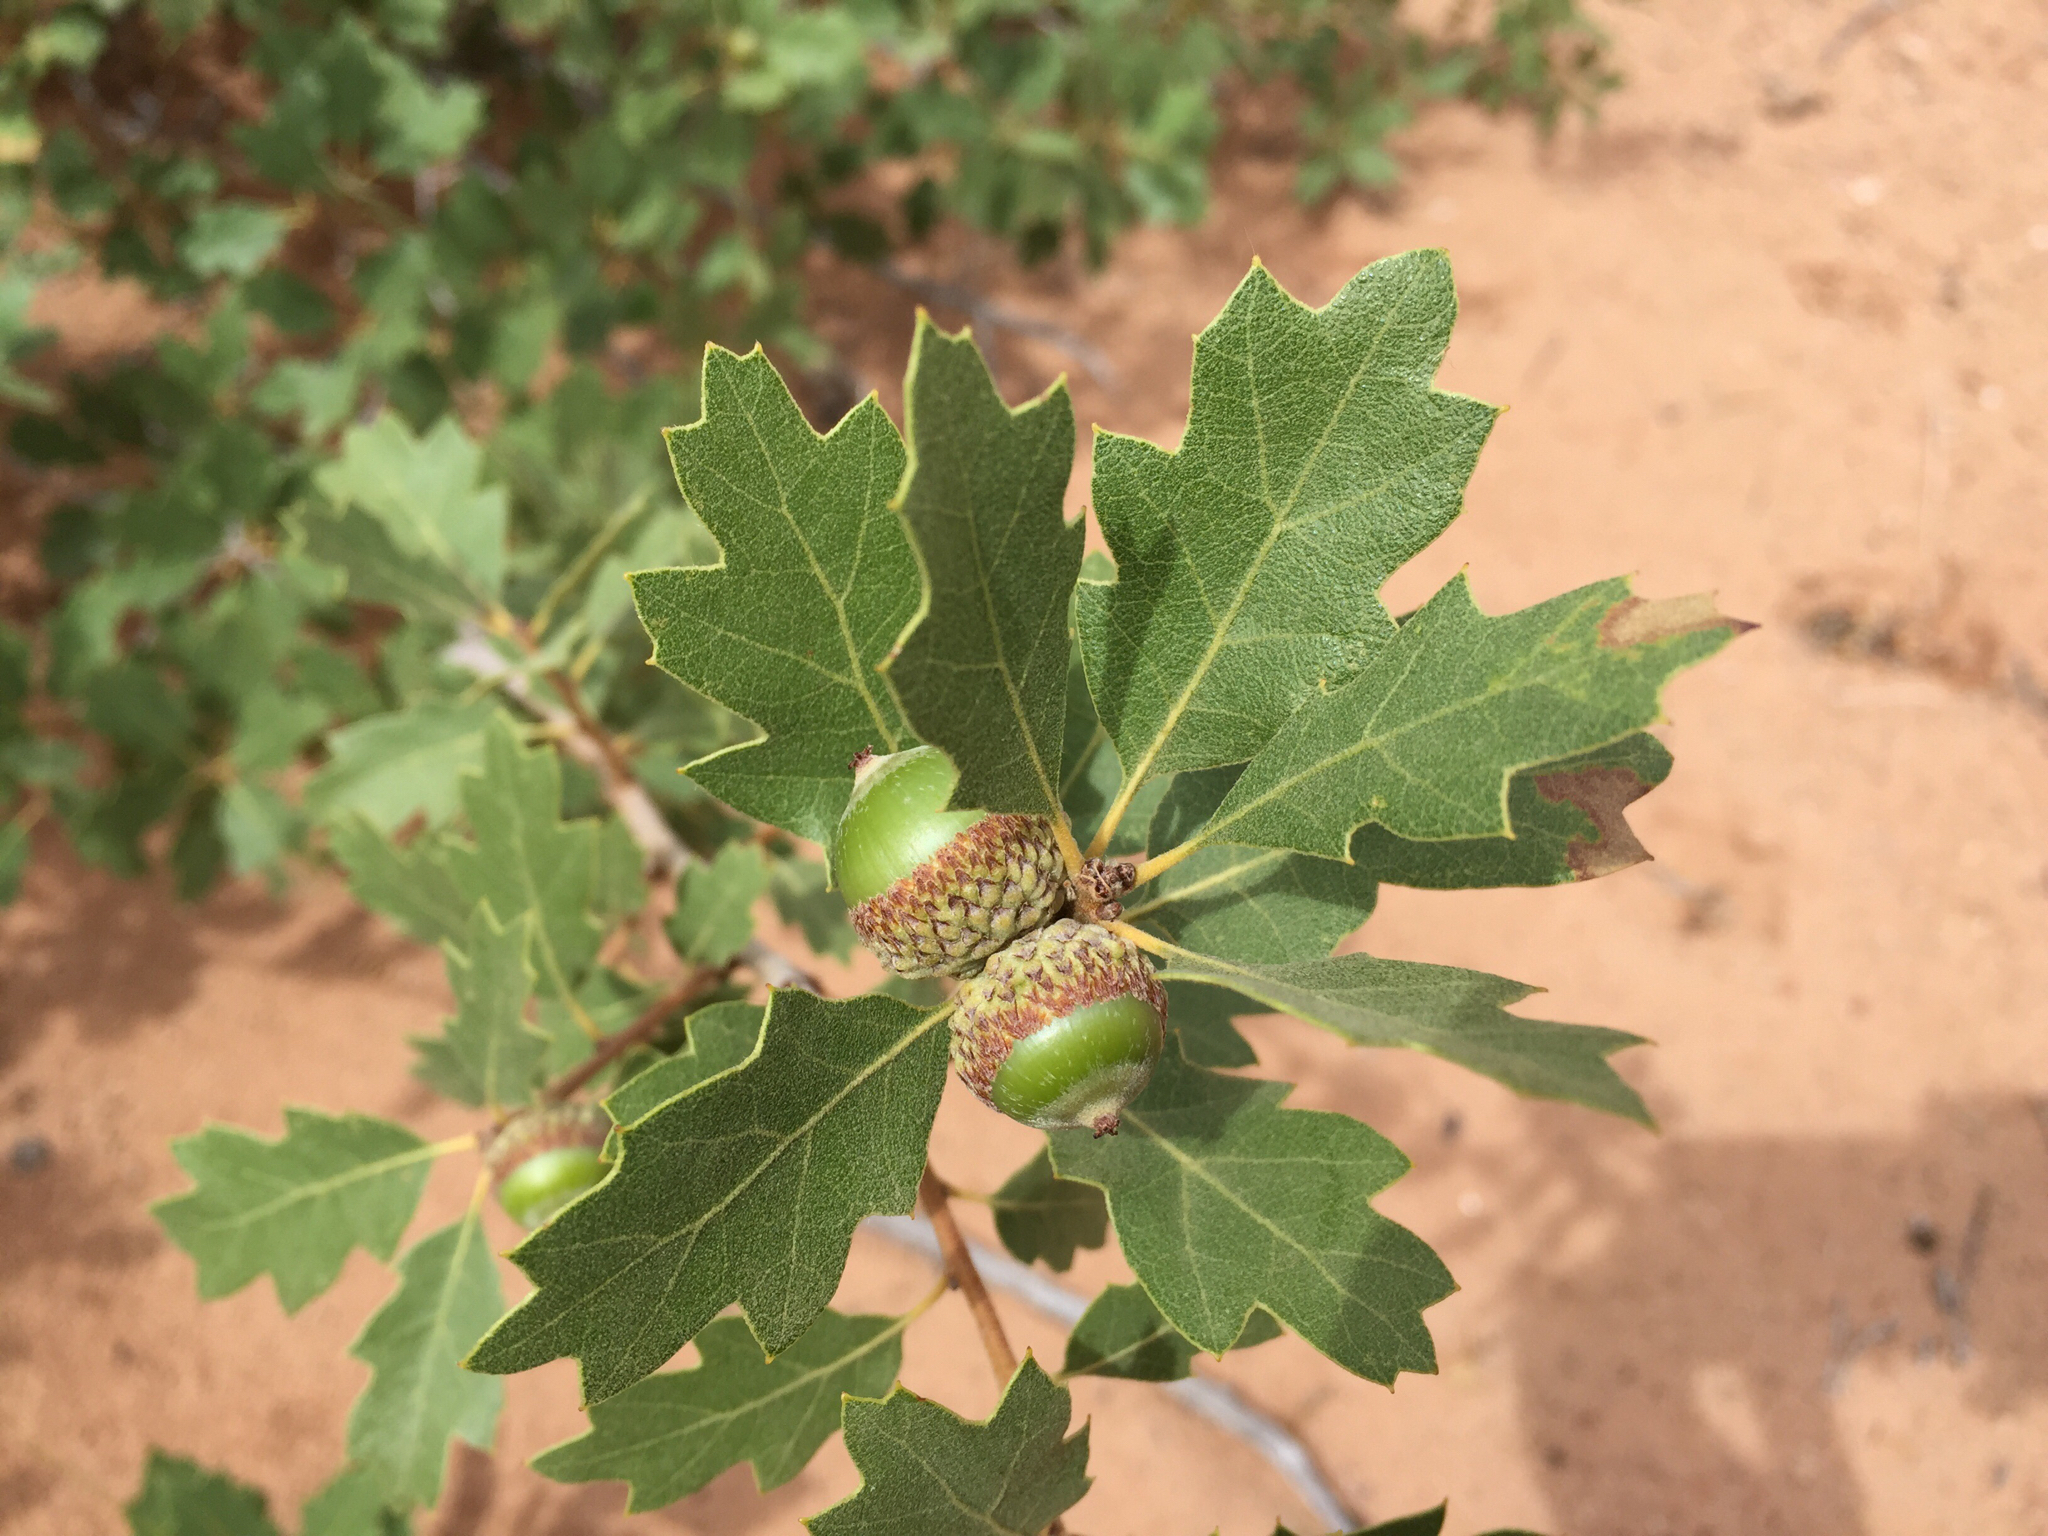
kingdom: Plantae
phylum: Tracheophyta
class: Magnoliopsida
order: Fagales
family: Fagaceae
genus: Quercus
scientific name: Quercus welshii
